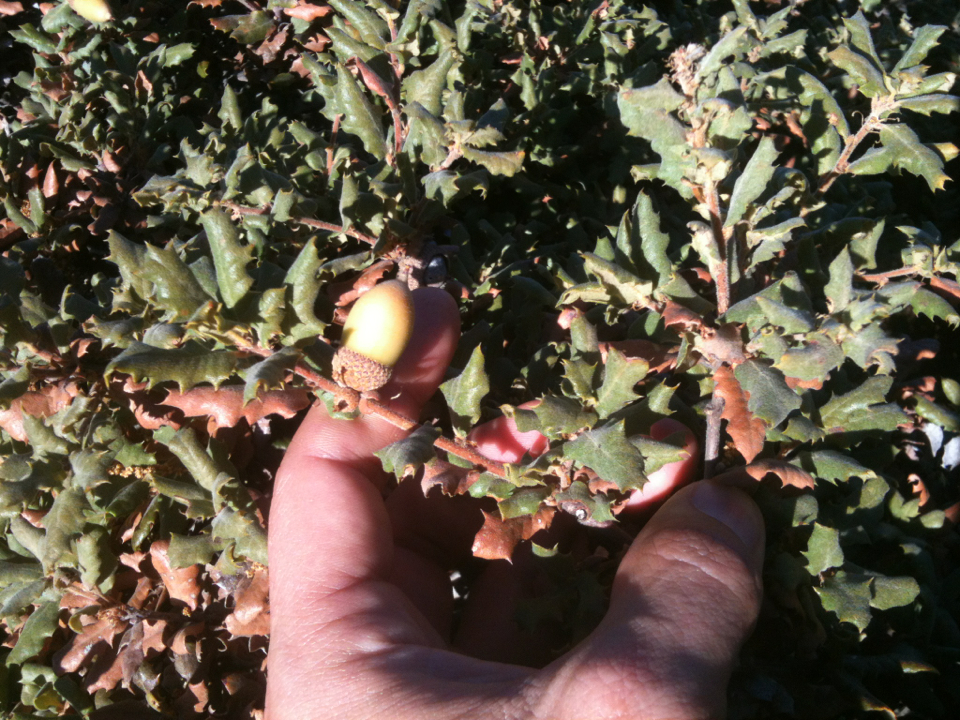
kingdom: Plantae
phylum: Tracheophyta
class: Magnoliopsida
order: Fagales
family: Fagaceae
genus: Quercus
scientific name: Quercus durata
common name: Leather oak
